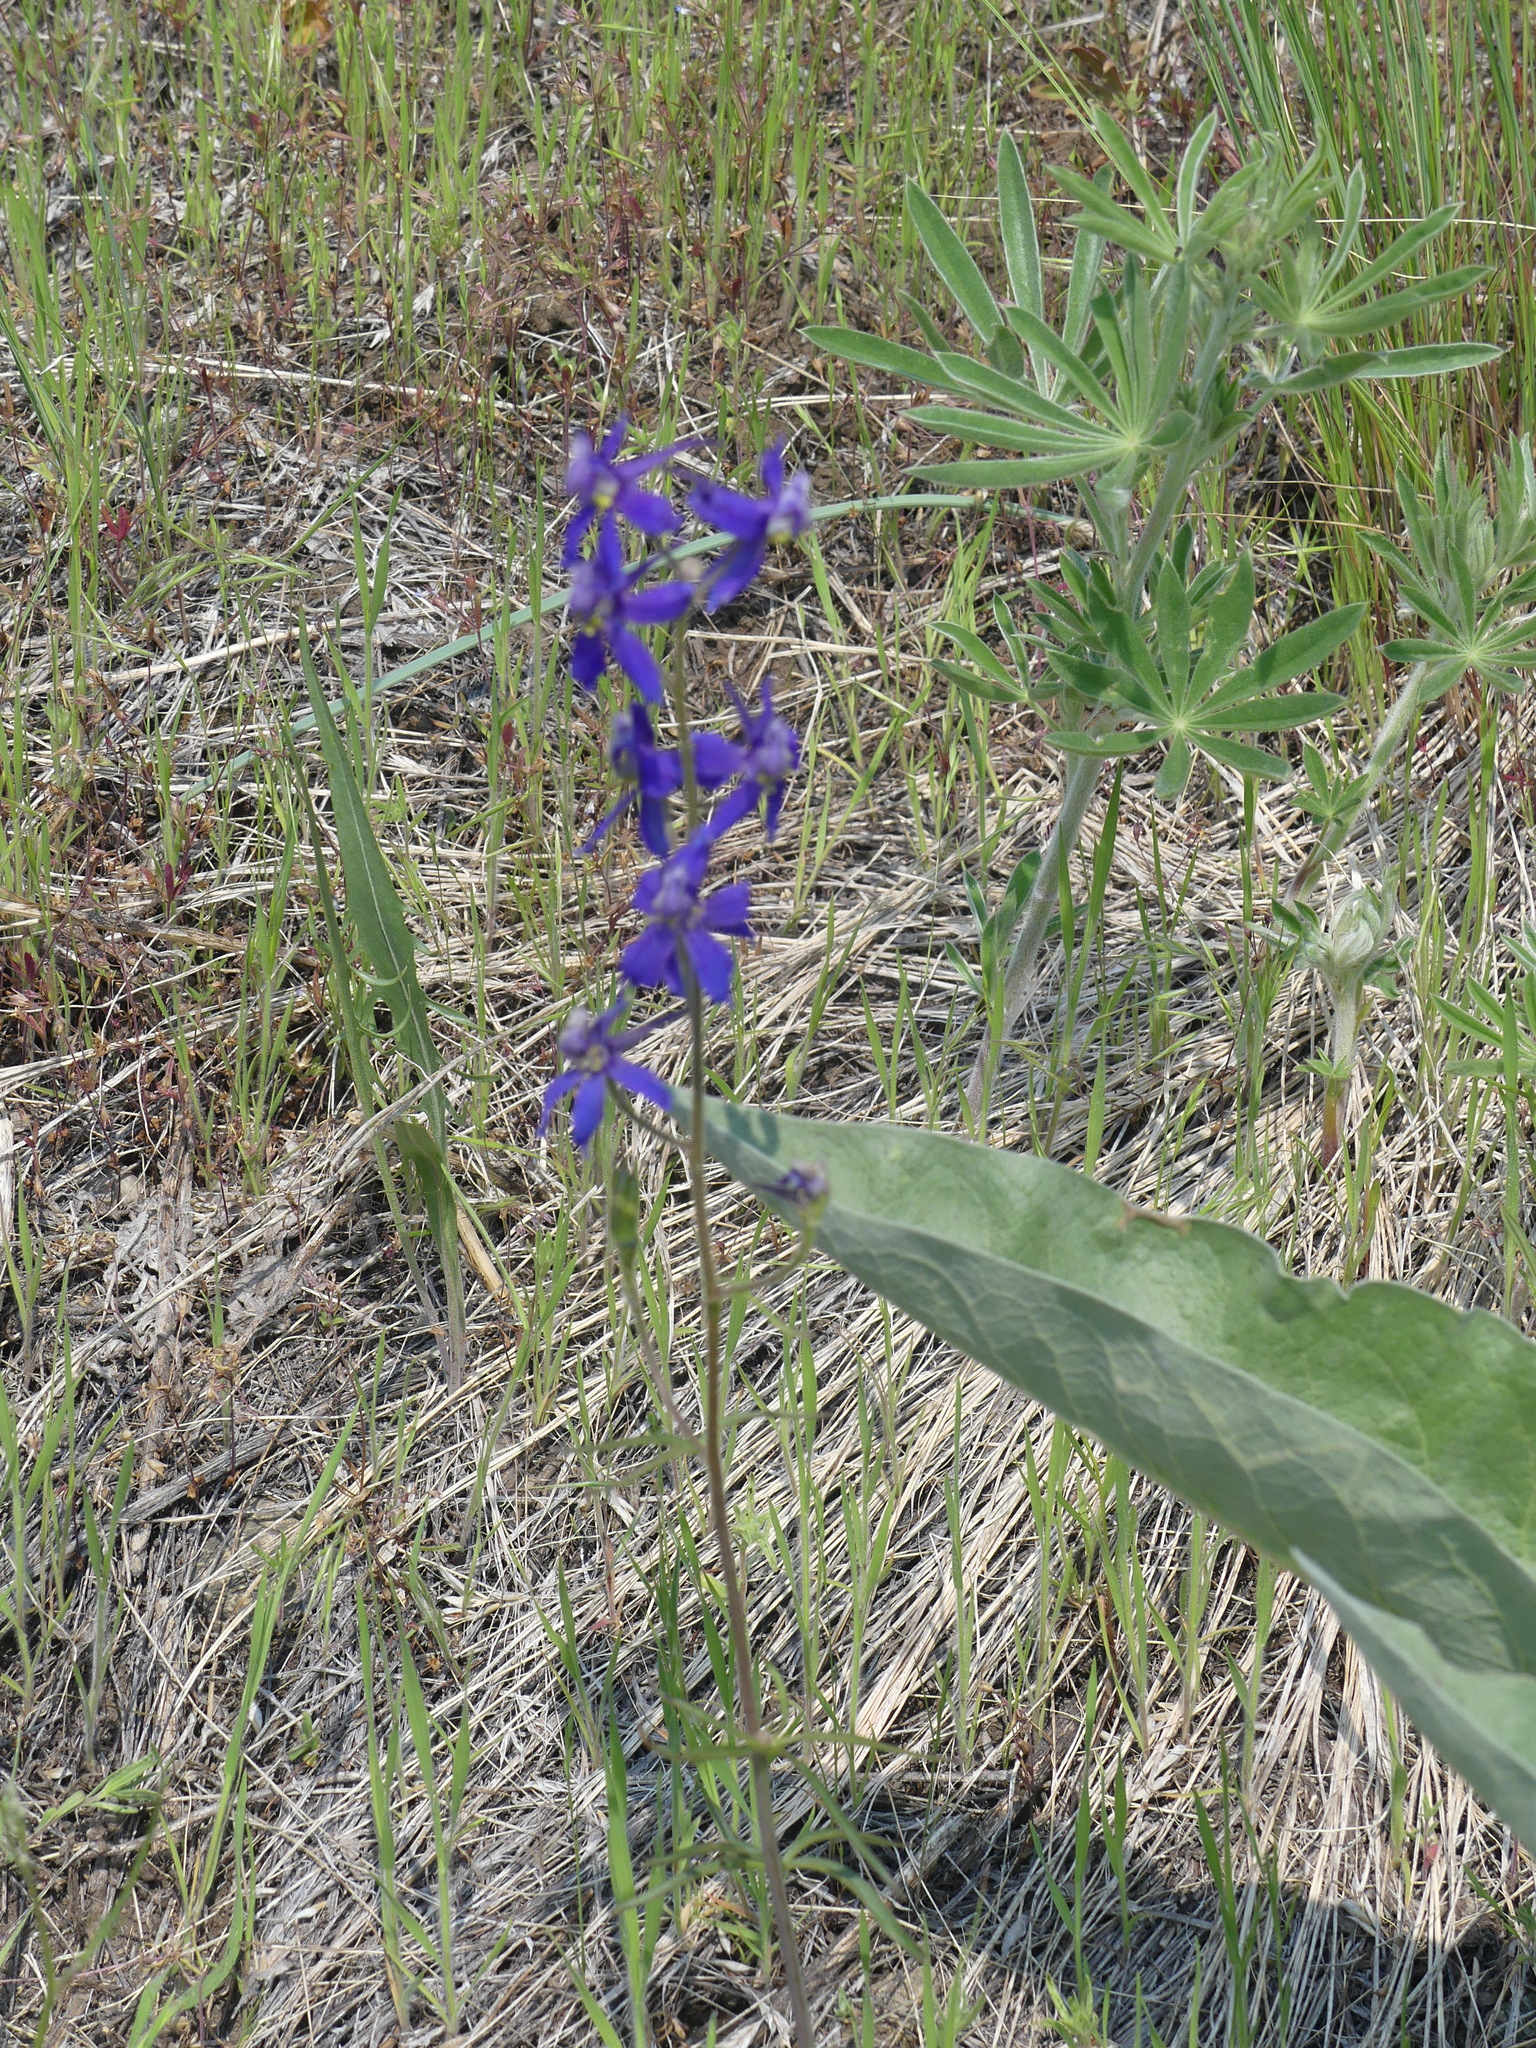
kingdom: Plantae
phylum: Tracheophyta
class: Magnoliopsida
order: Ranunculales
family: Ranunculaceae
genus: Delphinium
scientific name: Delphinium nuttallianum
